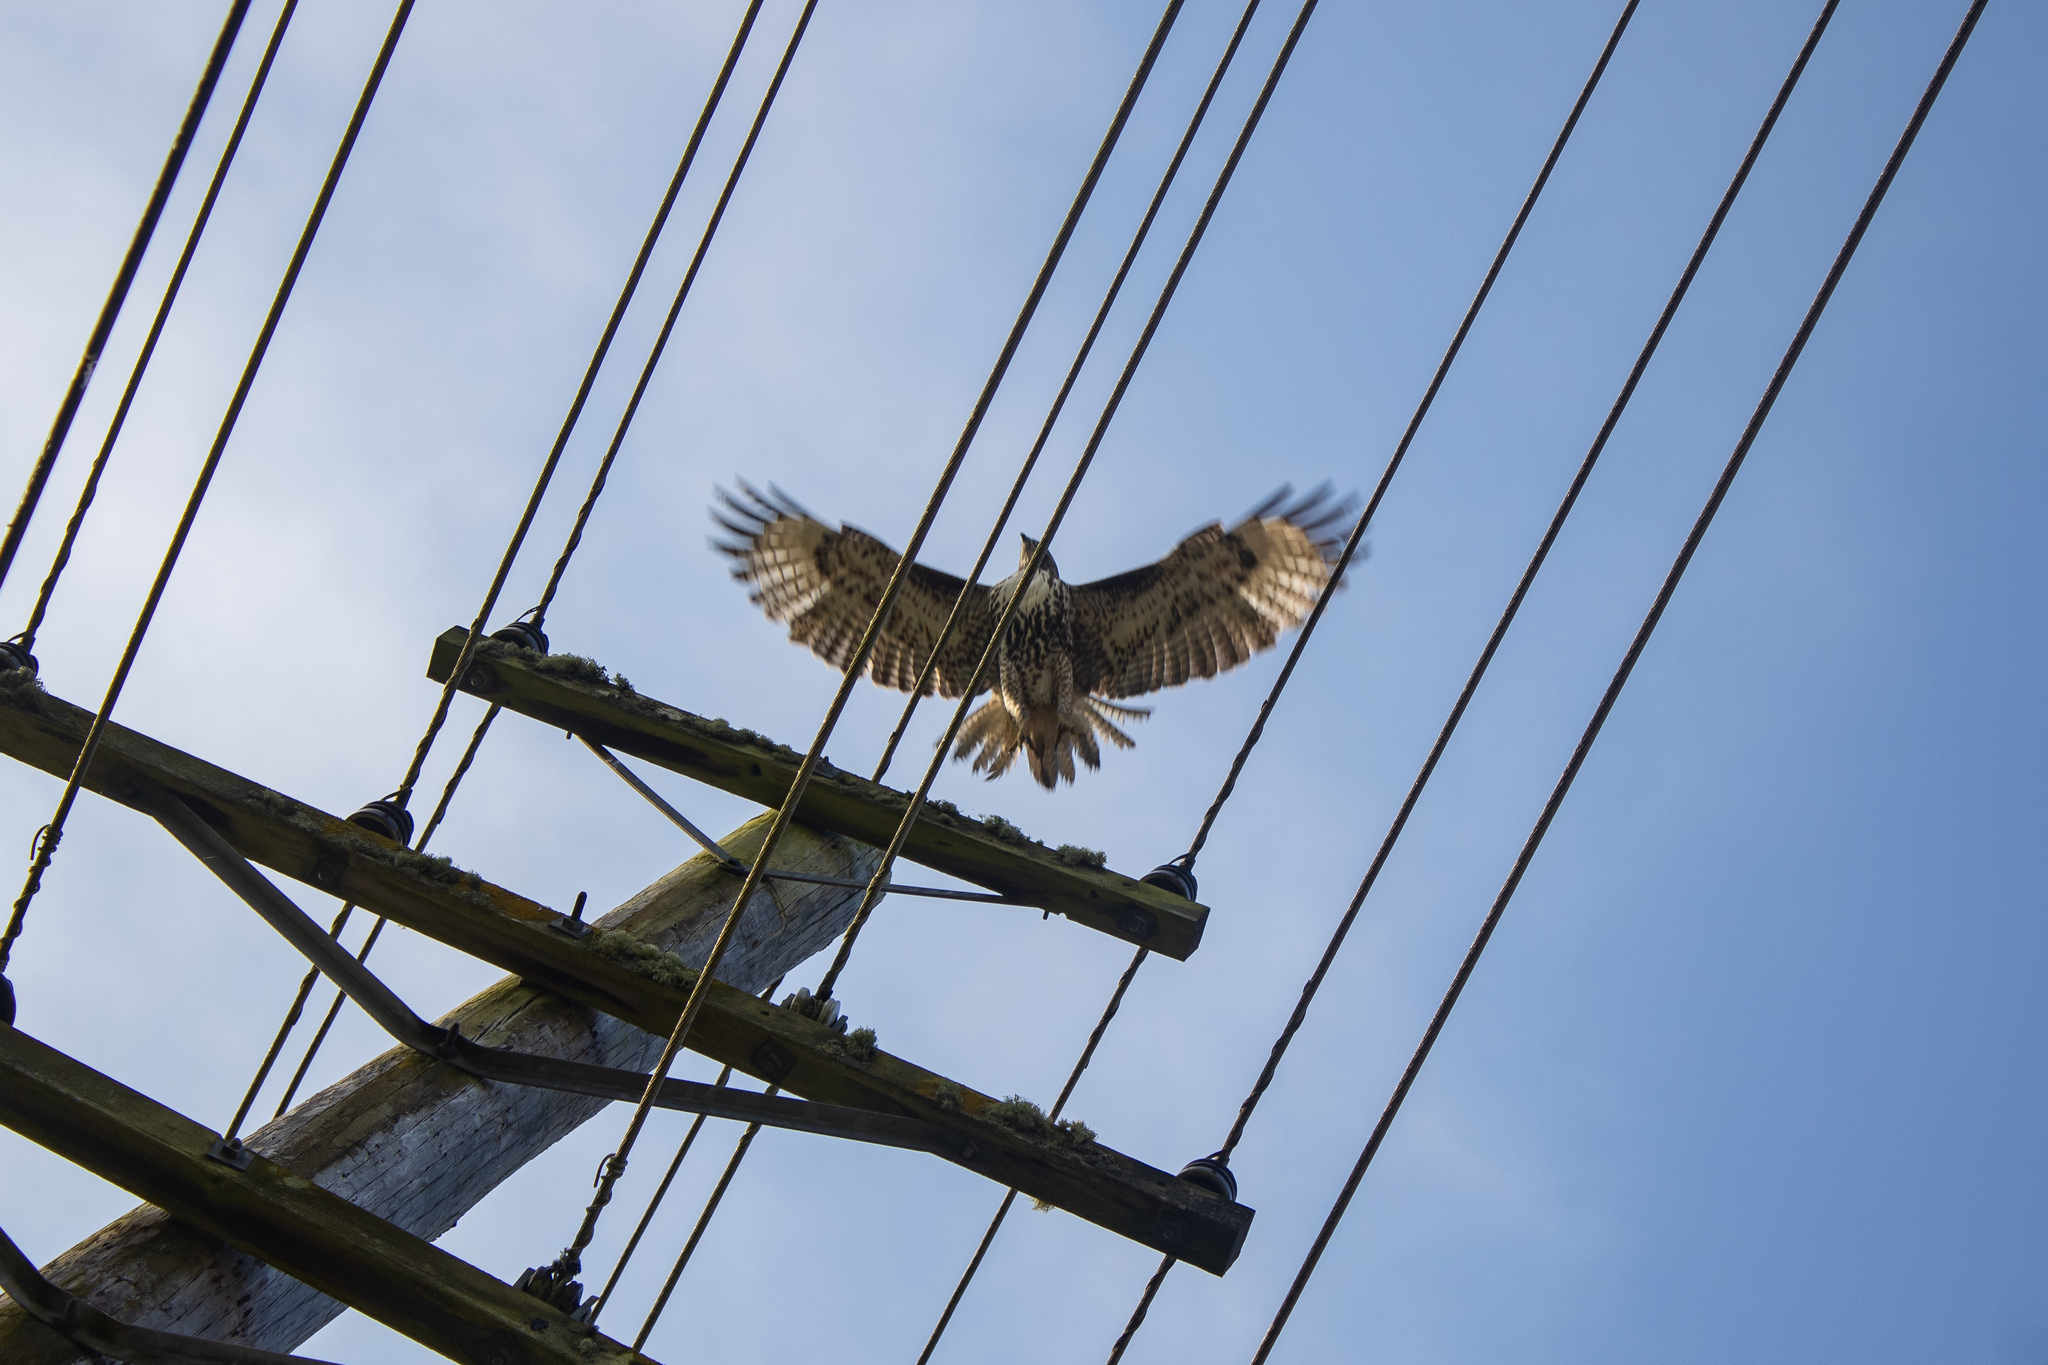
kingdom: Animalia
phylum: Chordata
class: Aves
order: Accipitriformes
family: Accipitridae
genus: Buteo
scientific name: Buteo jamaicensis
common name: Red-tailed hawk
